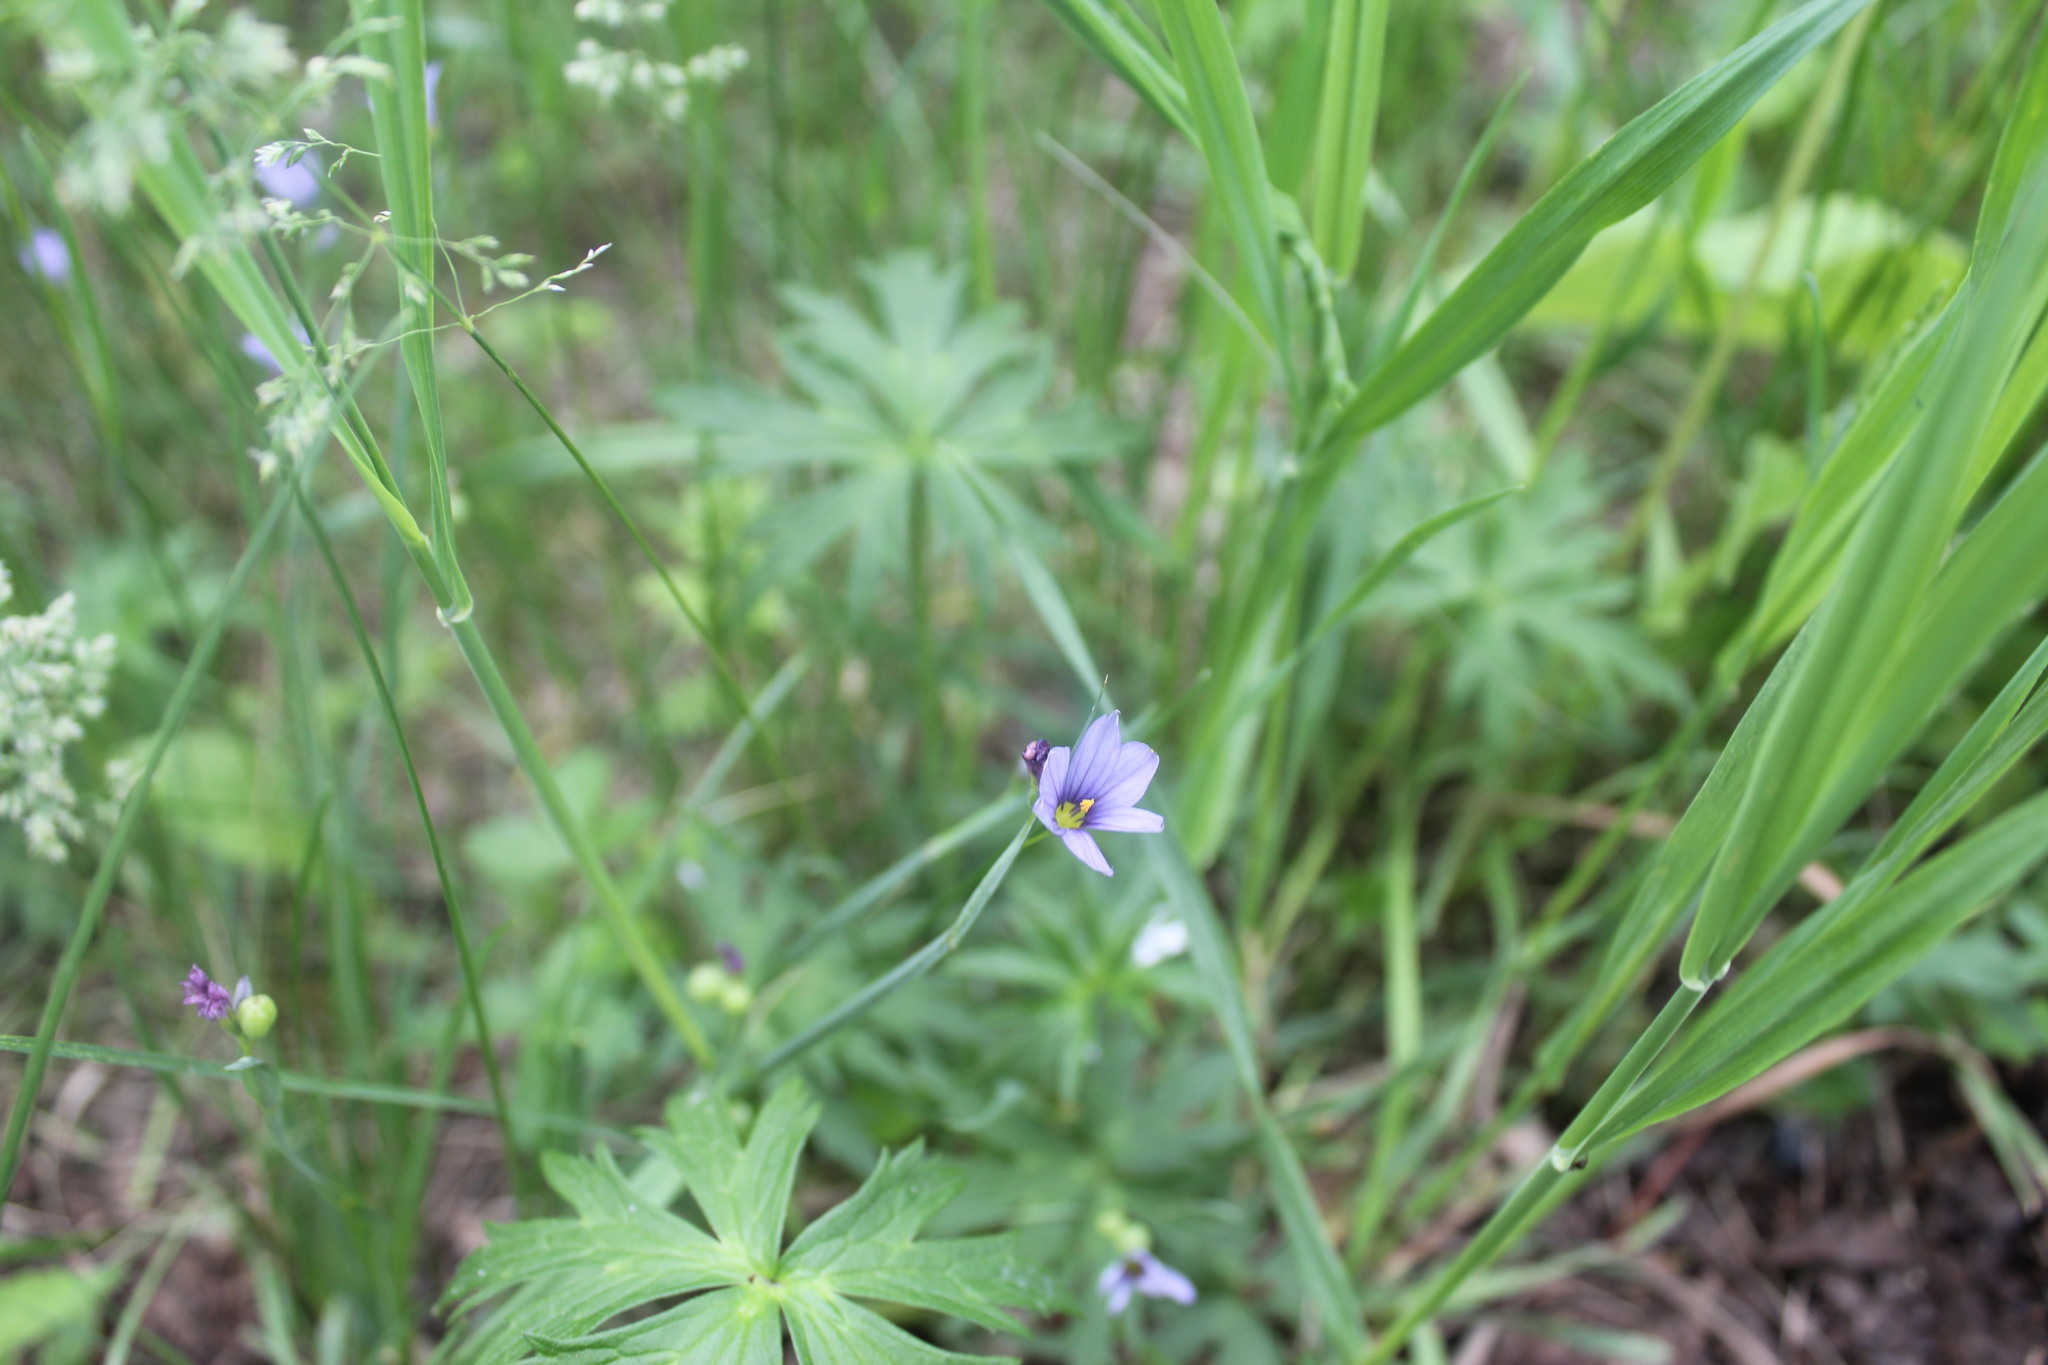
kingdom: Plantae
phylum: Tracheophyta
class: Liliopsida
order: Asparagales
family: Iridaceae
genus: Sisyrinchium
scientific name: Sisyrinchium montanum
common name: American blue-eyed-grass
